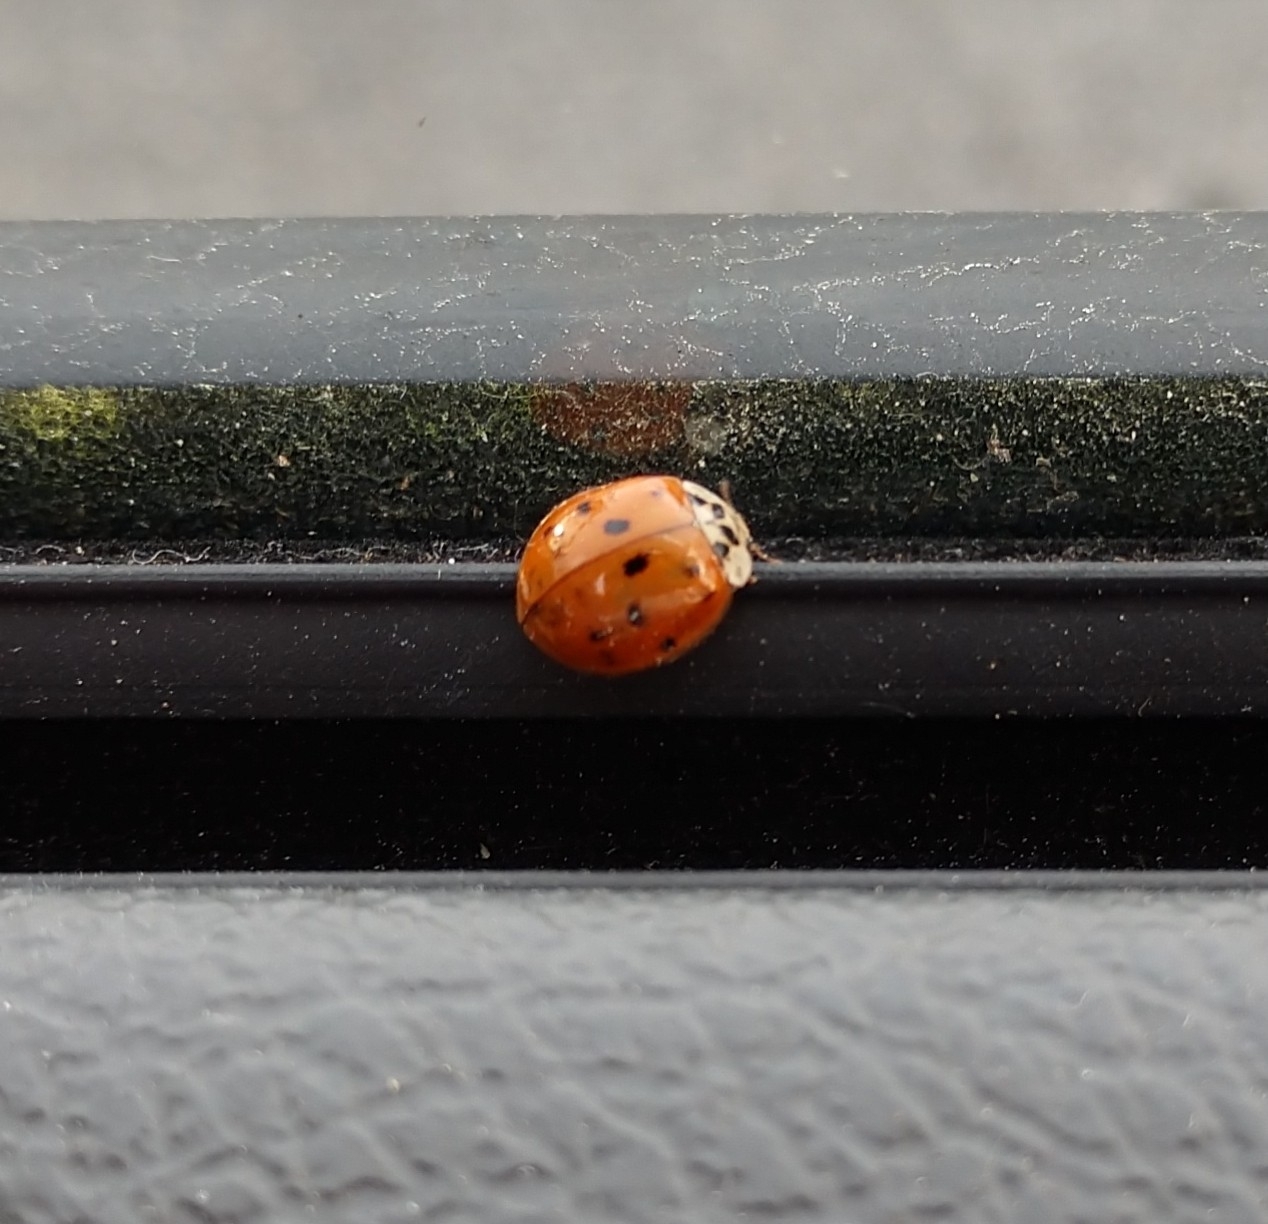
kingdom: Animalia
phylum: Arthropoda
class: Insecta
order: Coleoptera
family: Coccinellidae
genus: Harmonia
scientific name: Harmonia axyridis
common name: Harlequin ladybird
